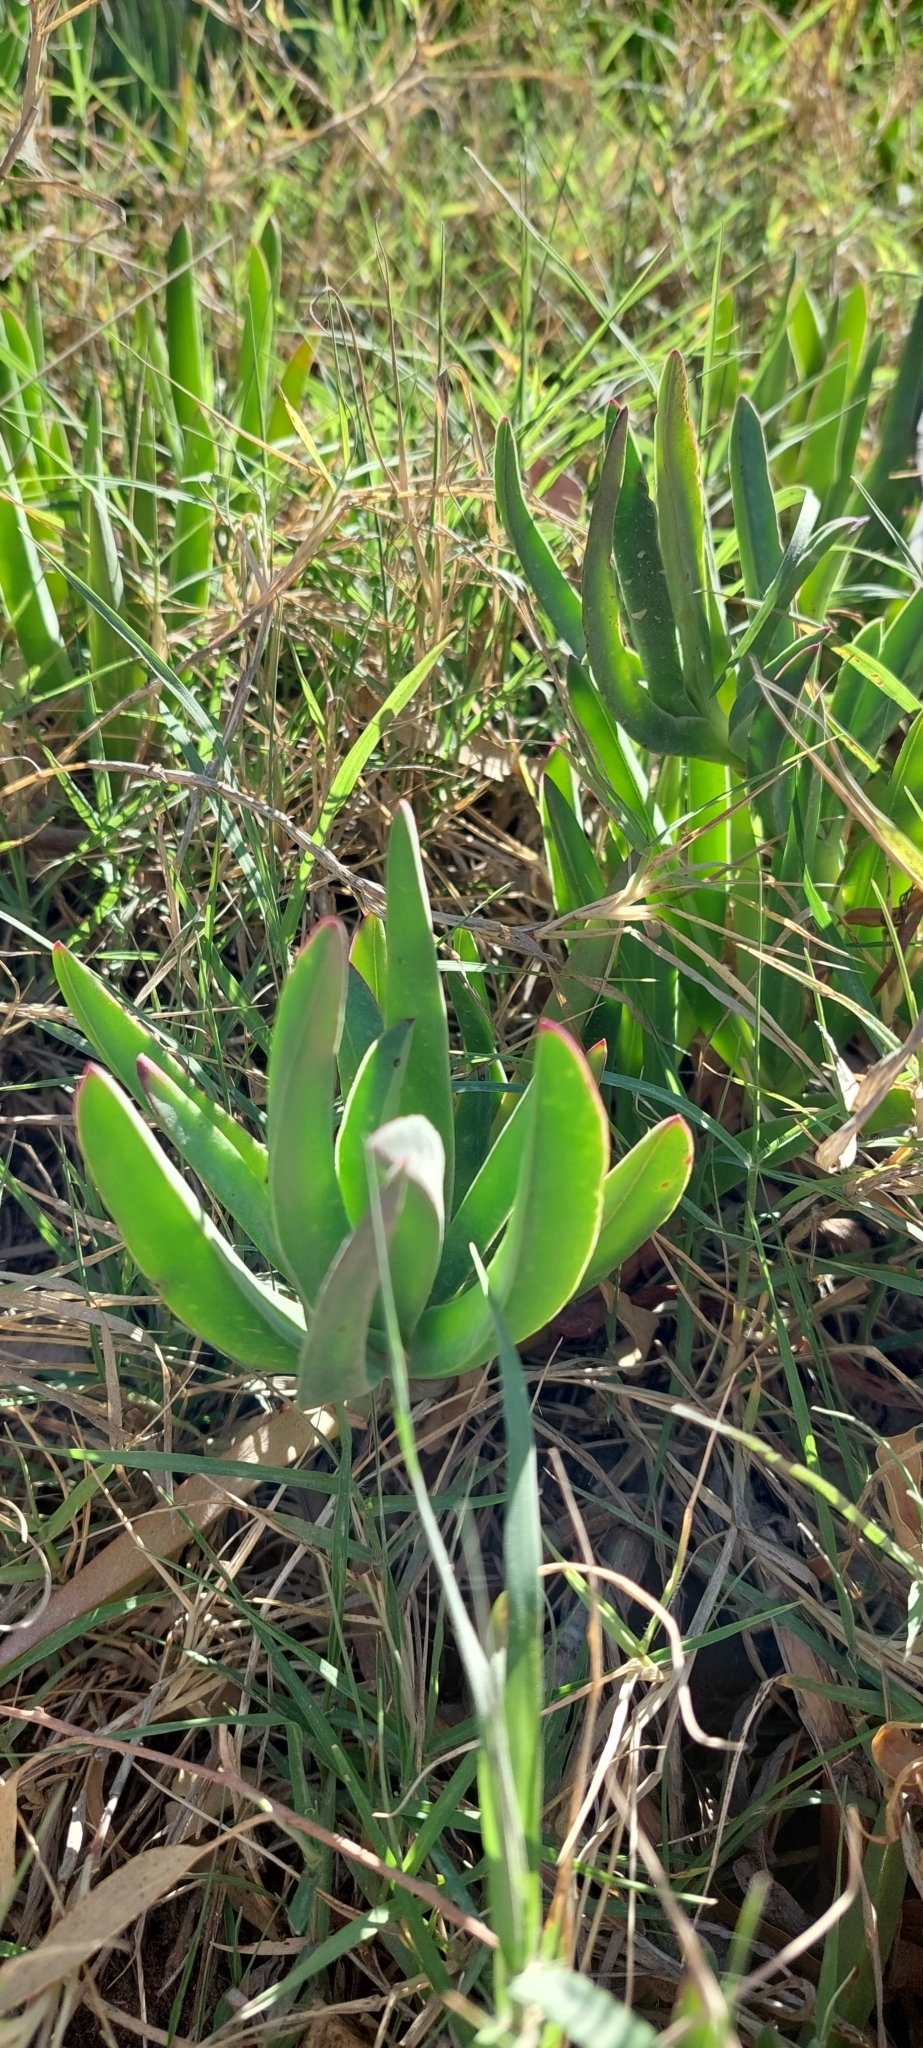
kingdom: Plantae
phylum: Tracheophyta
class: Magnoliopsida
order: Caryophyllales
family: Aizoaceae
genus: Carpobrotus
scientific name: Carpobrotus edulis
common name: Hottentot-fig
